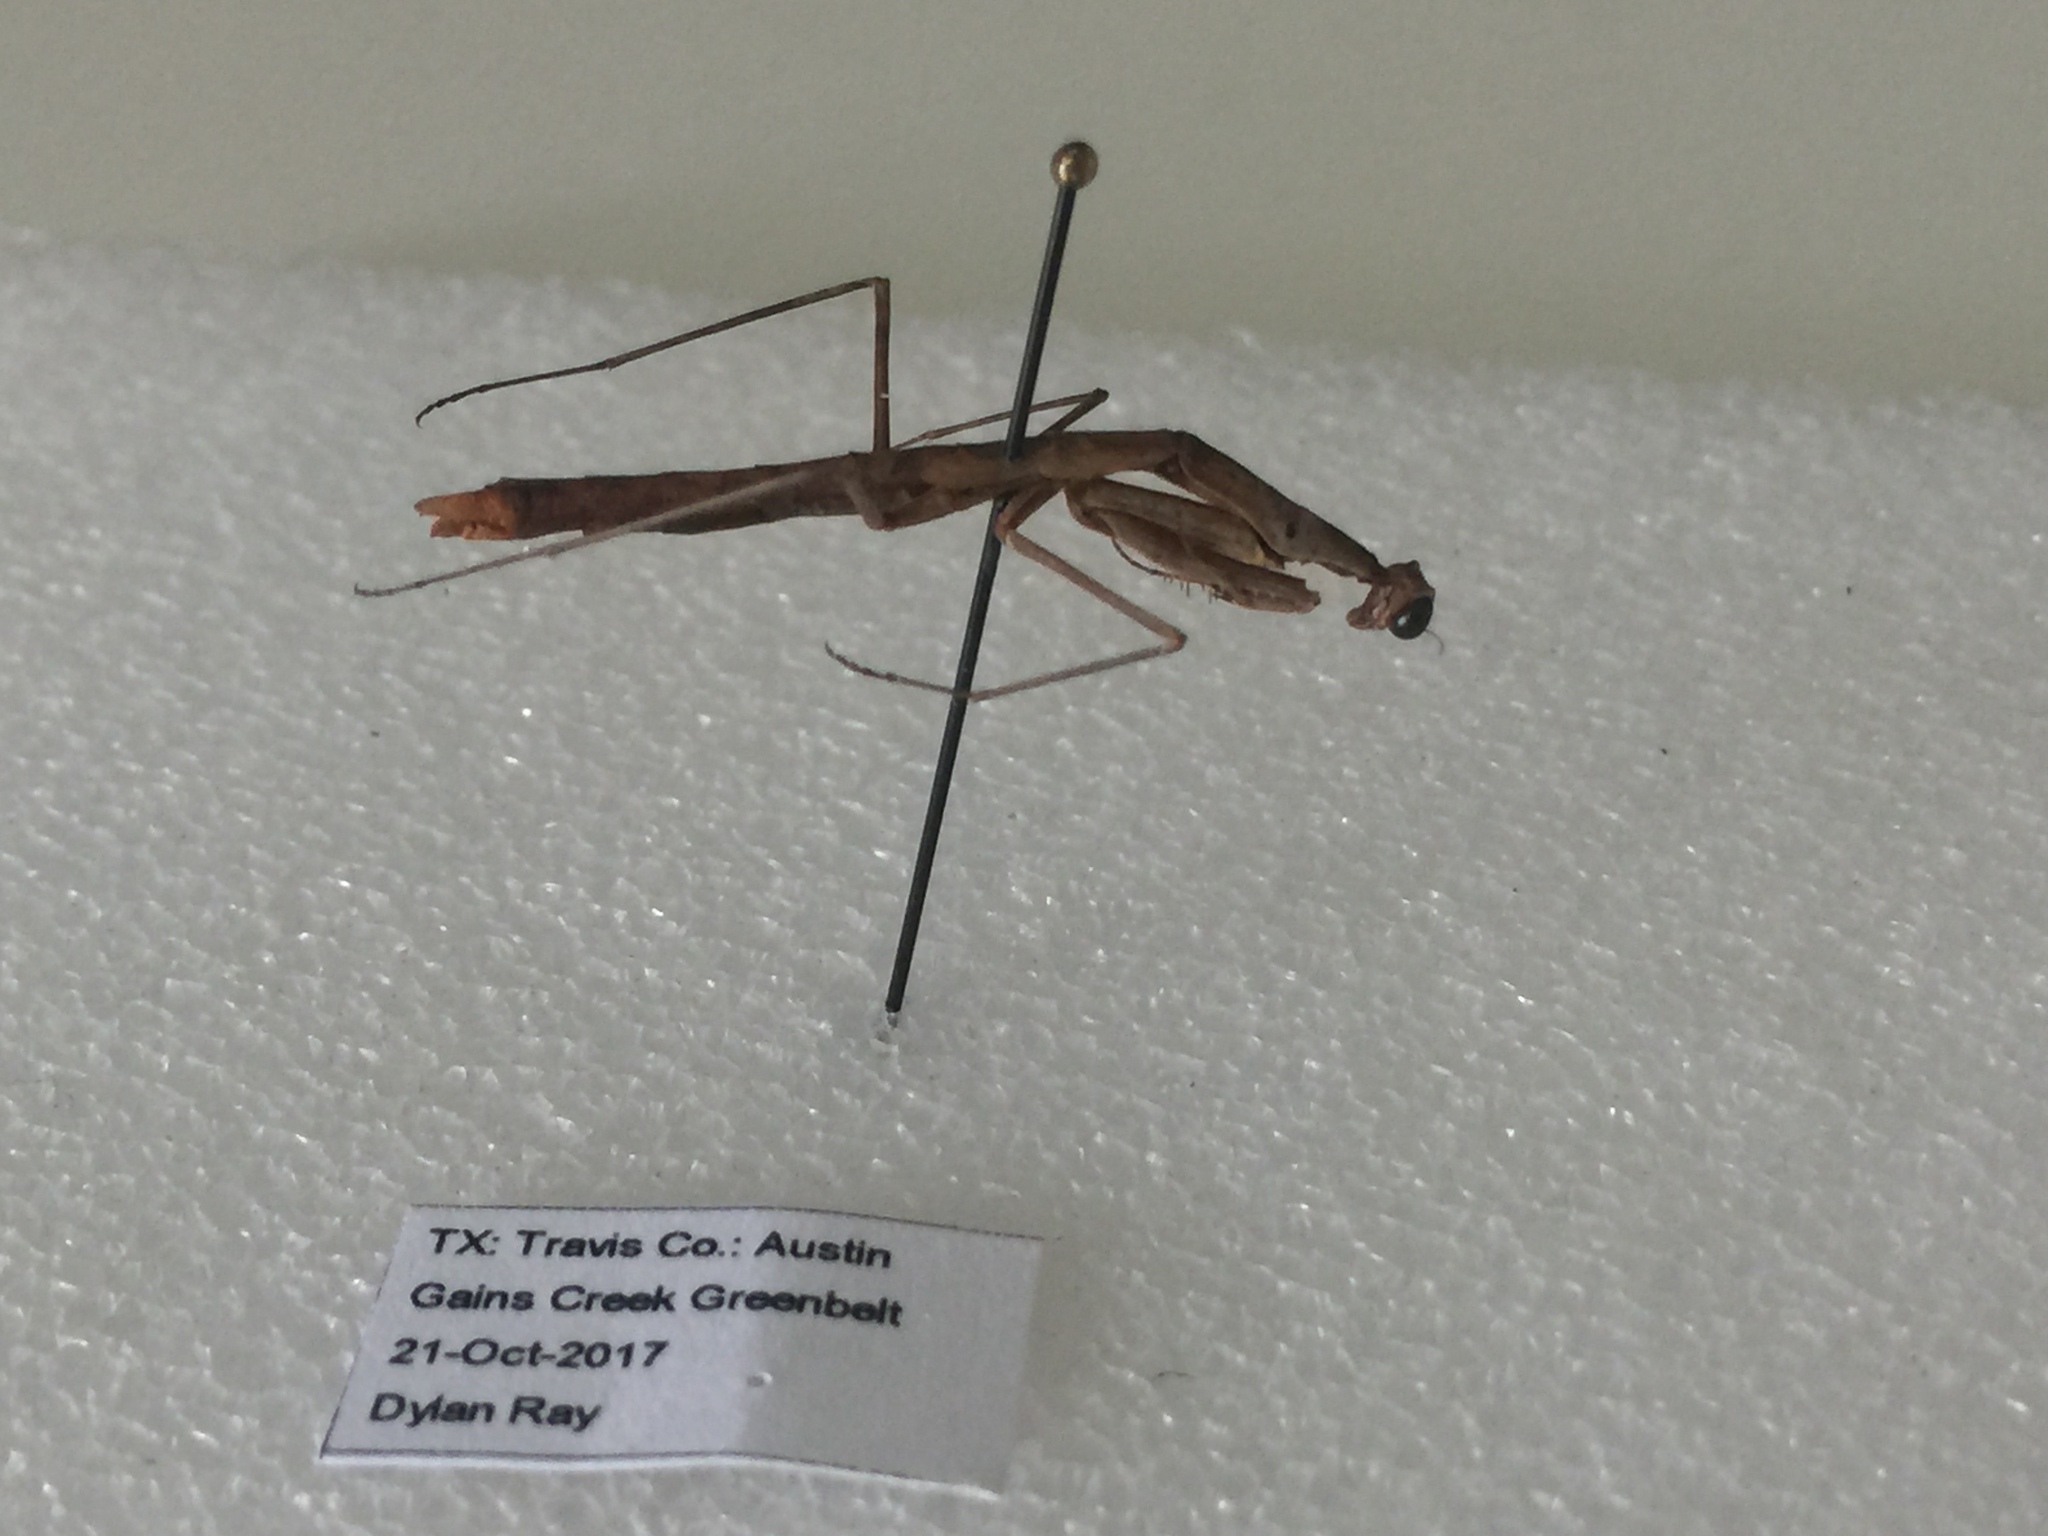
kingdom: Animalia
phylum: Arthropoda
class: Insecta
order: Mantodea
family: Thespidae
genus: Oligonicella
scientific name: Oligonicella scudderi
